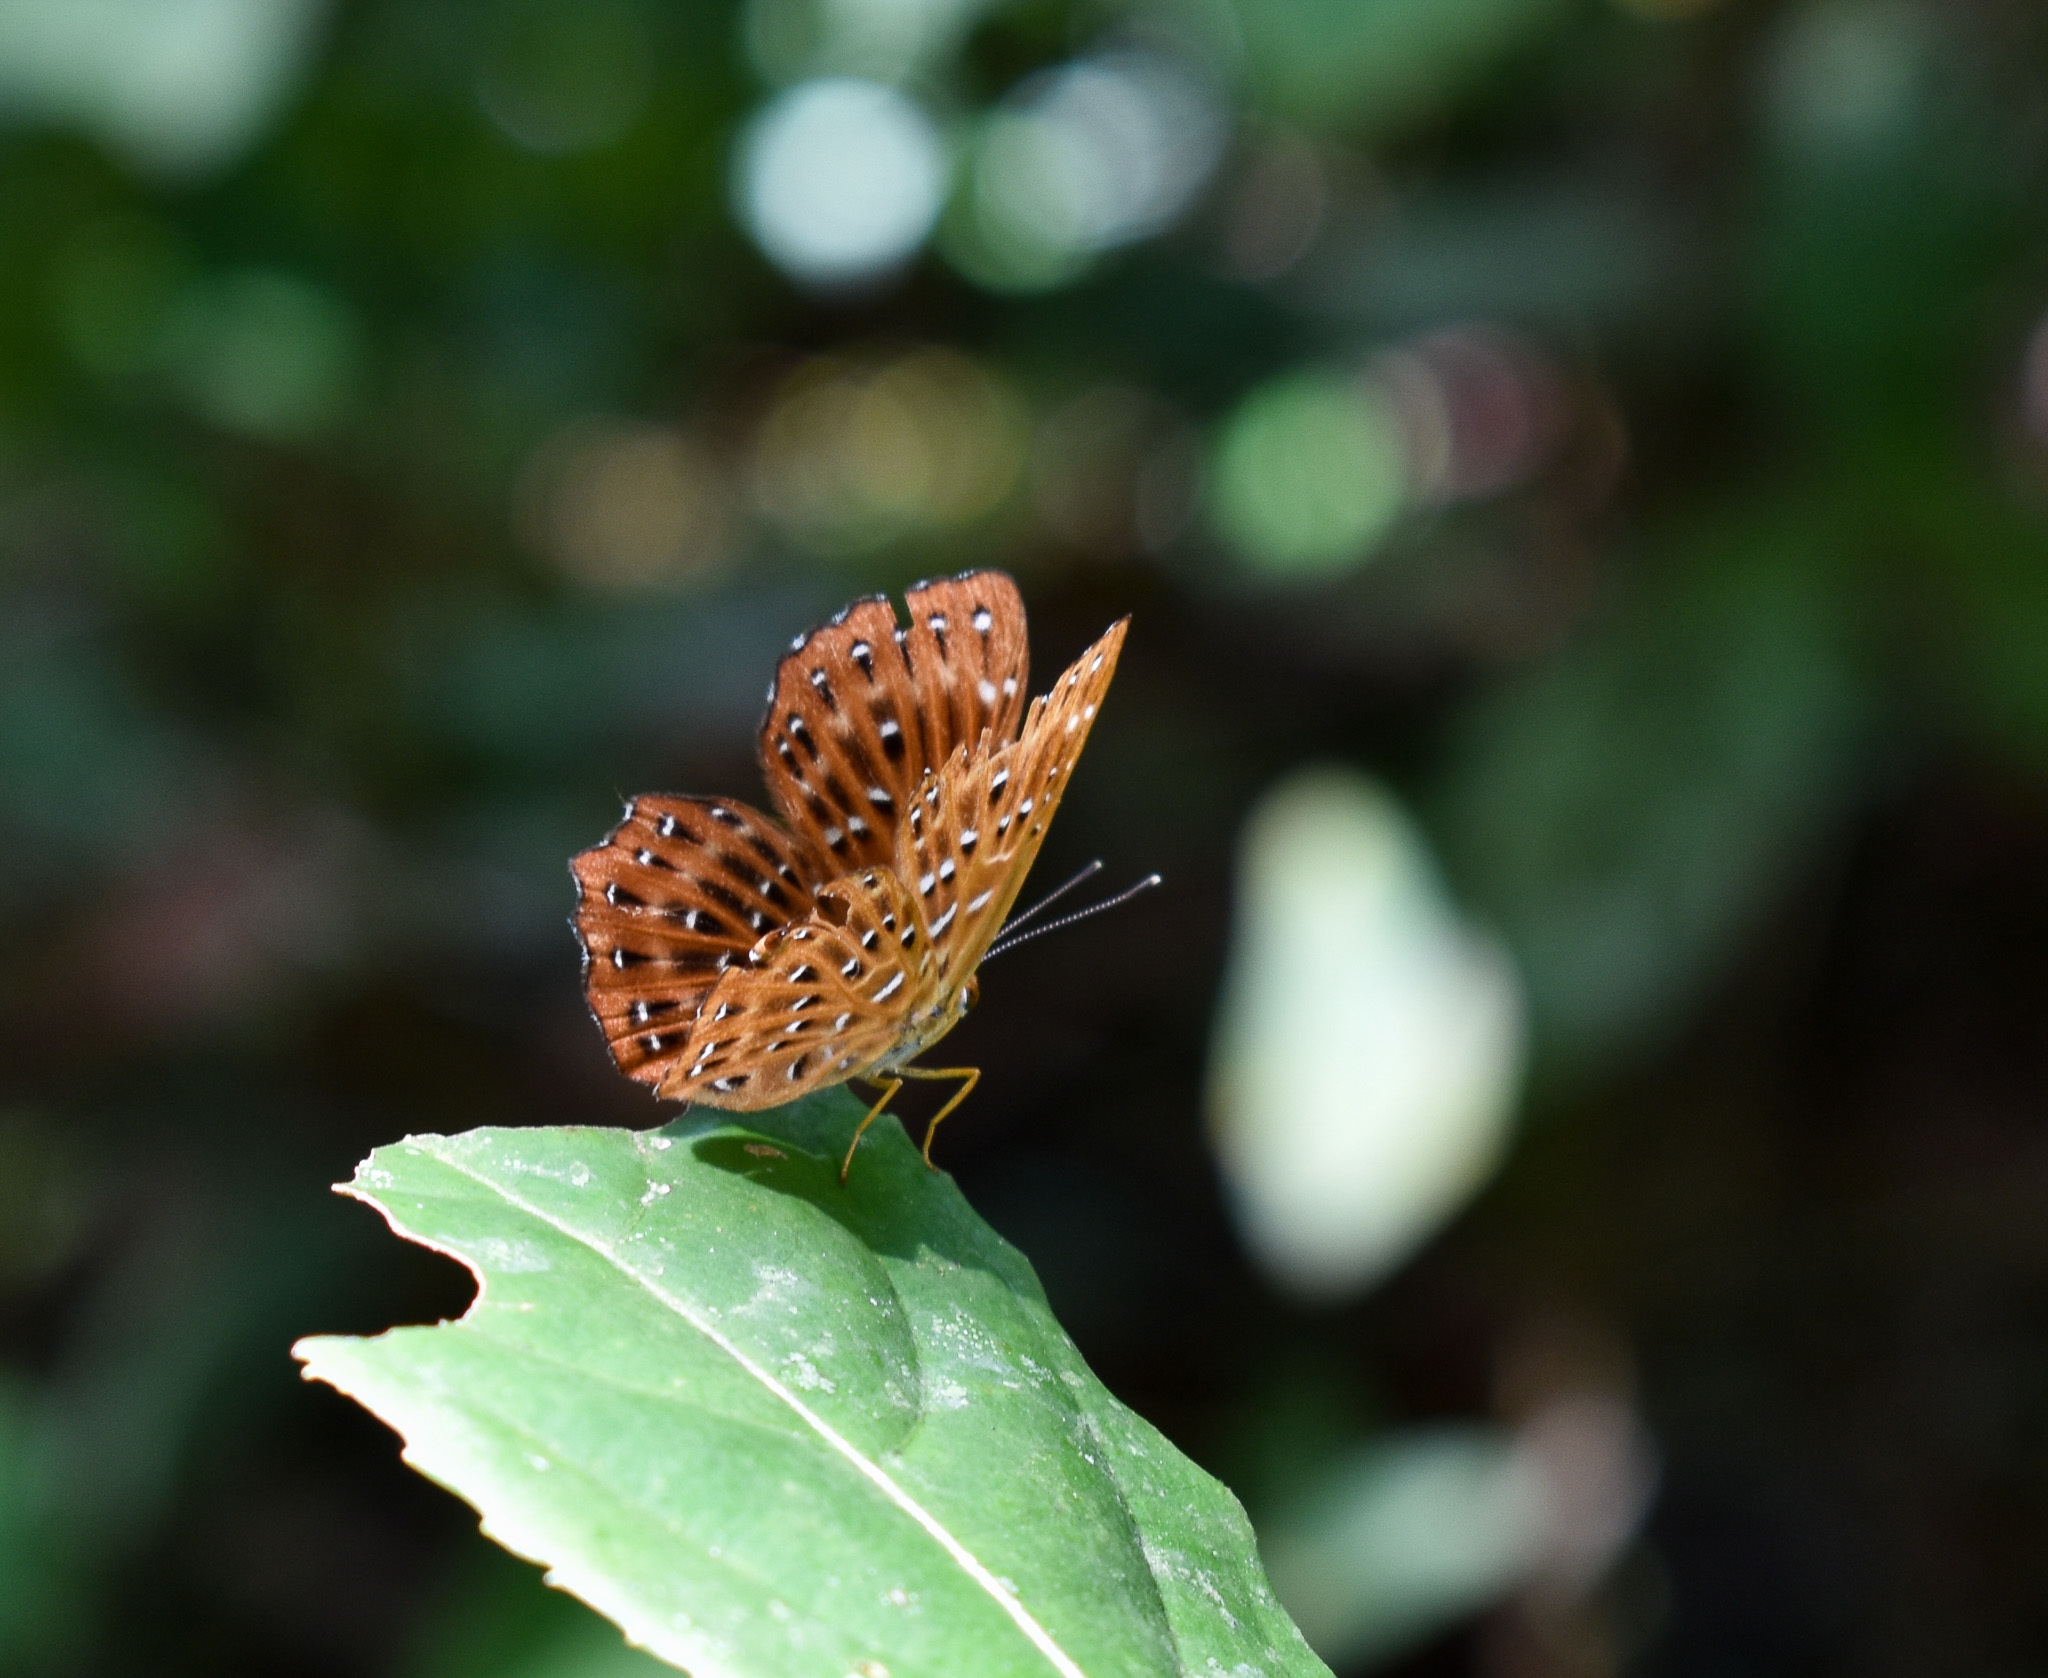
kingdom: Animalia
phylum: Arthropoda
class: Insecta
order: Lepidoptera
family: Riodinidae
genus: Zemeros
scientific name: Zemeros flegyas
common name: Punchinello
